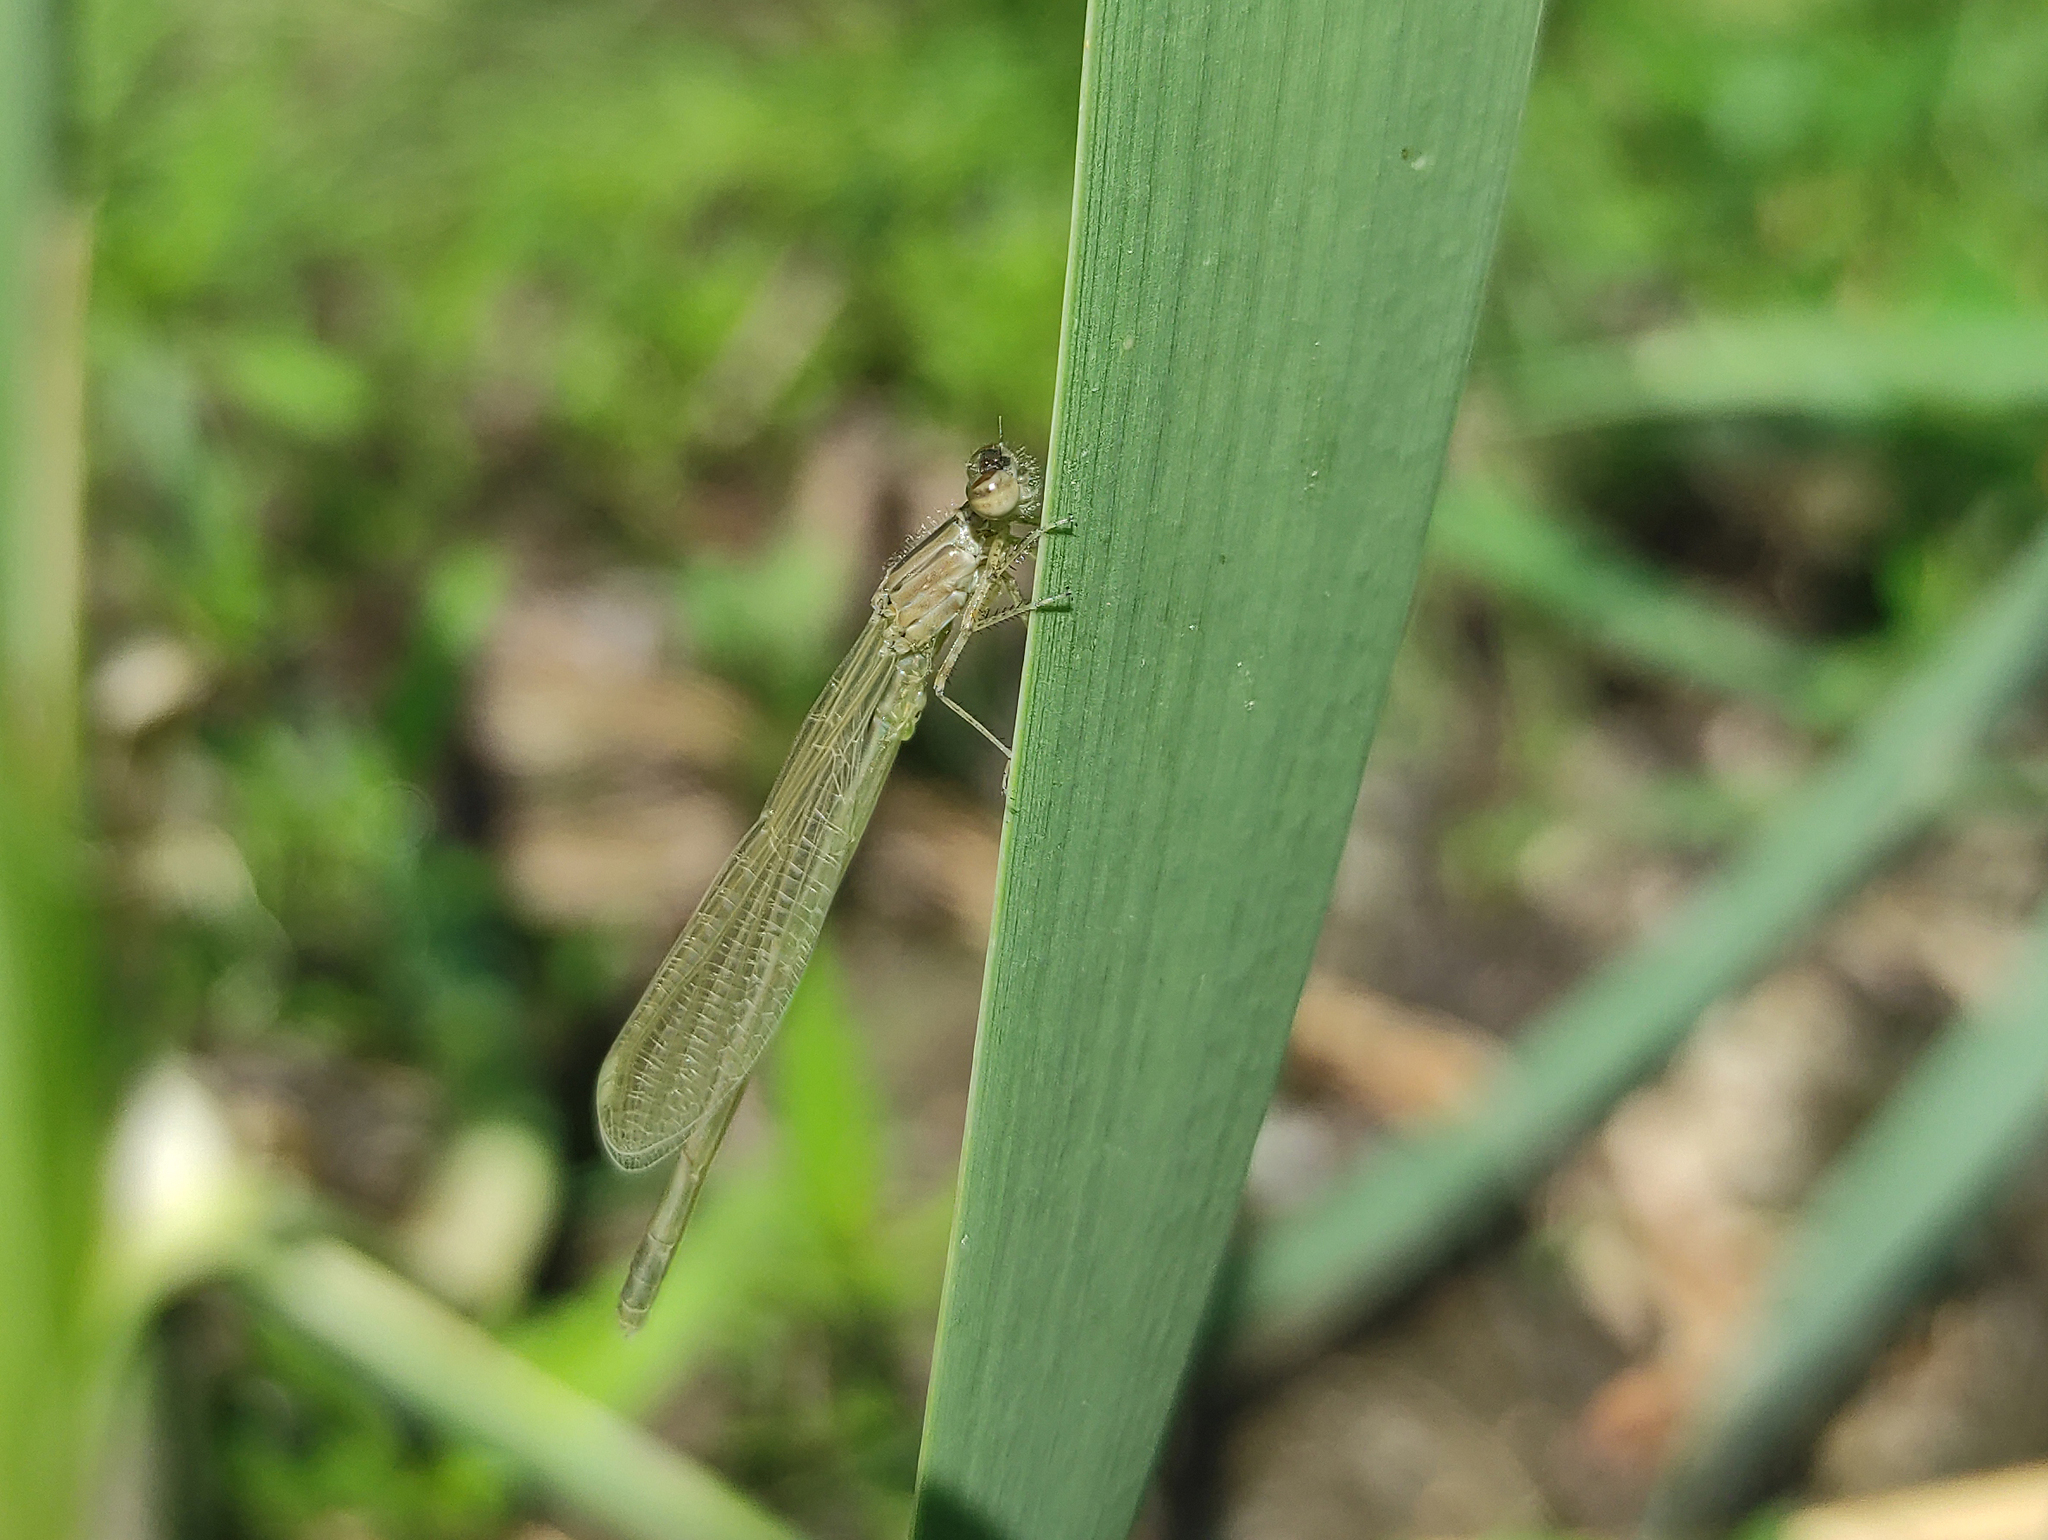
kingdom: Animalia
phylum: Arthropoda
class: Insecta
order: Odonata
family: Coenagrionidae
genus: Enallagma
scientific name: Enallagma cyathigerum
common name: Common blue damselfly
